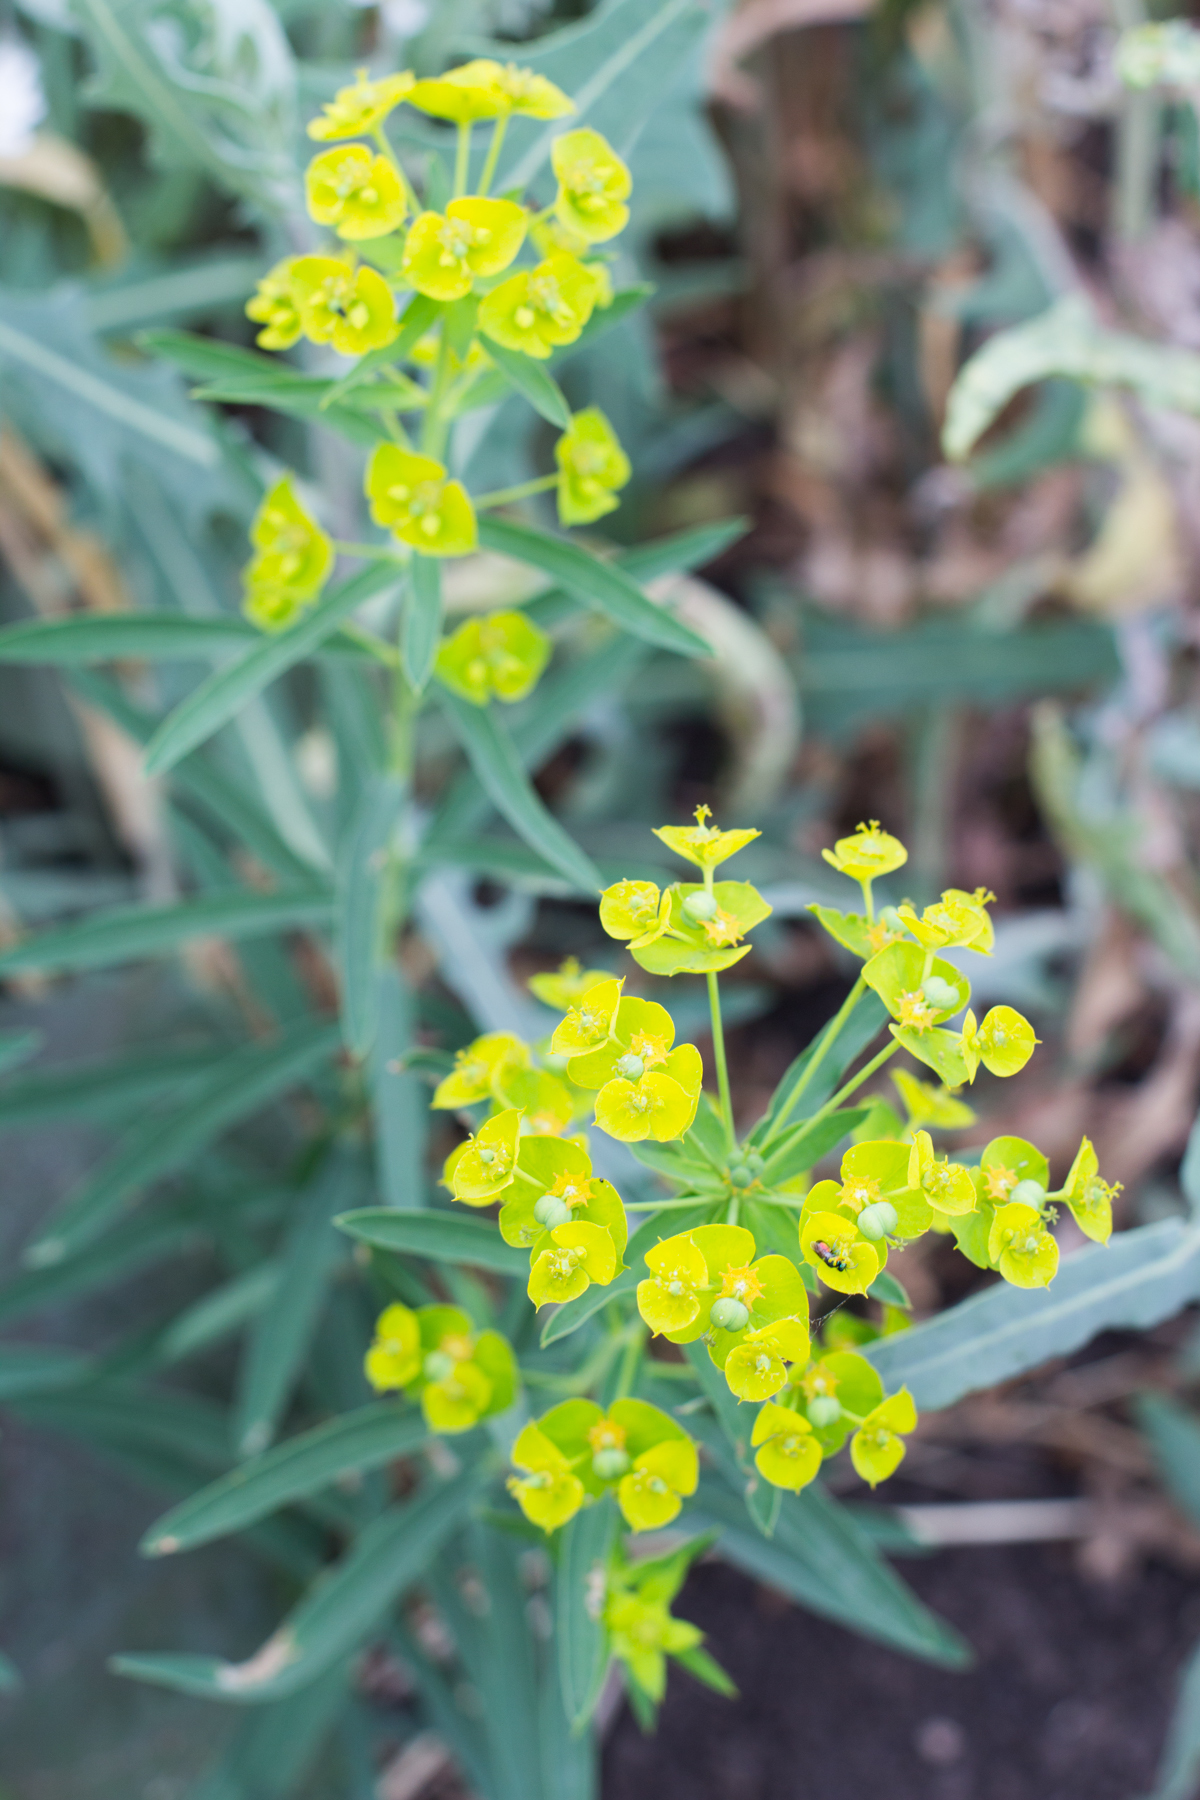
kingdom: Plantae
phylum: Tracheophyta
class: Magnoliopsida
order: Malpighiales
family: Euphorbiaceae
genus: Euphorbia
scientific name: Euphorbia virgata
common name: Leafy spurge
